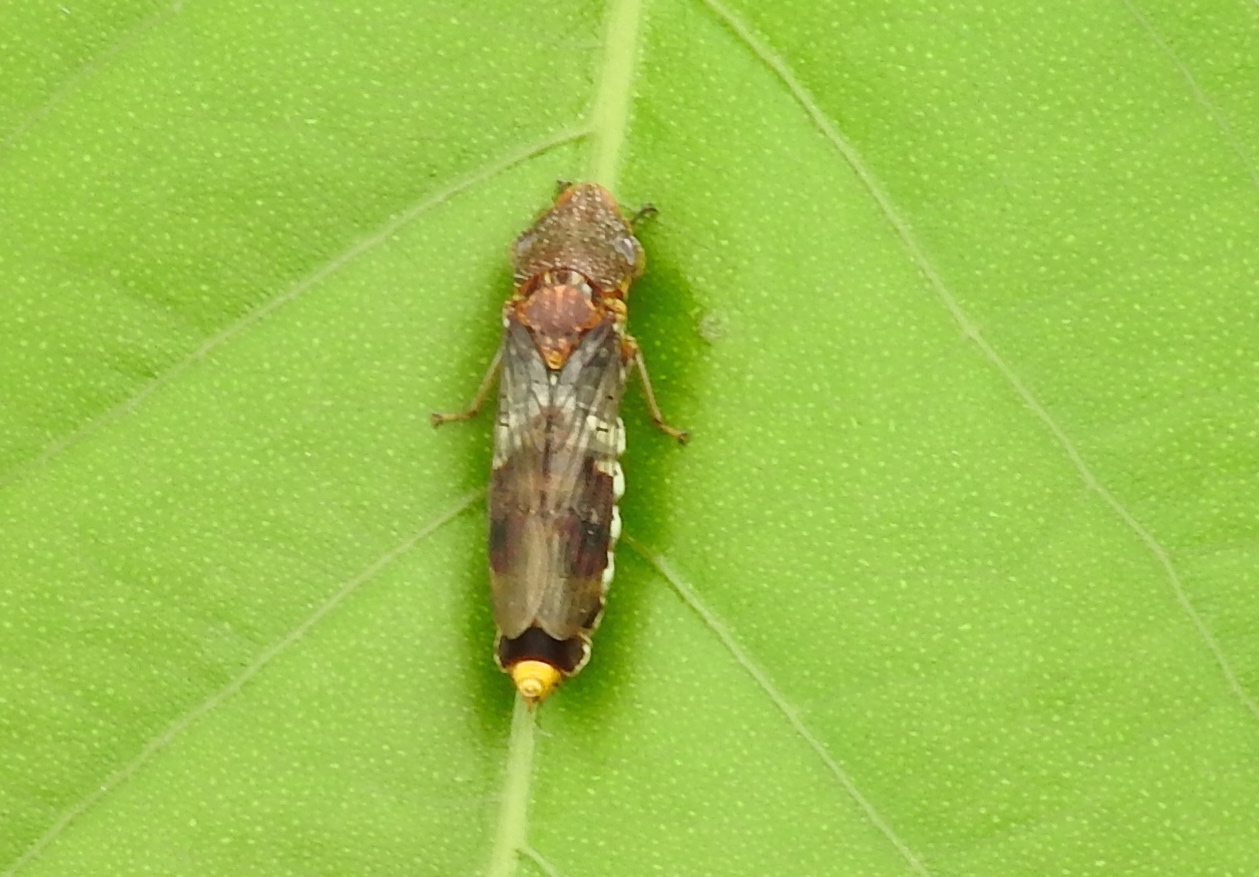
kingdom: Animalia
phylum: Arthropoda
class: Insecta
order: Hemiptera
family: Cicadellidae
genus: Homalodisca
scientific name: Homalodisca
